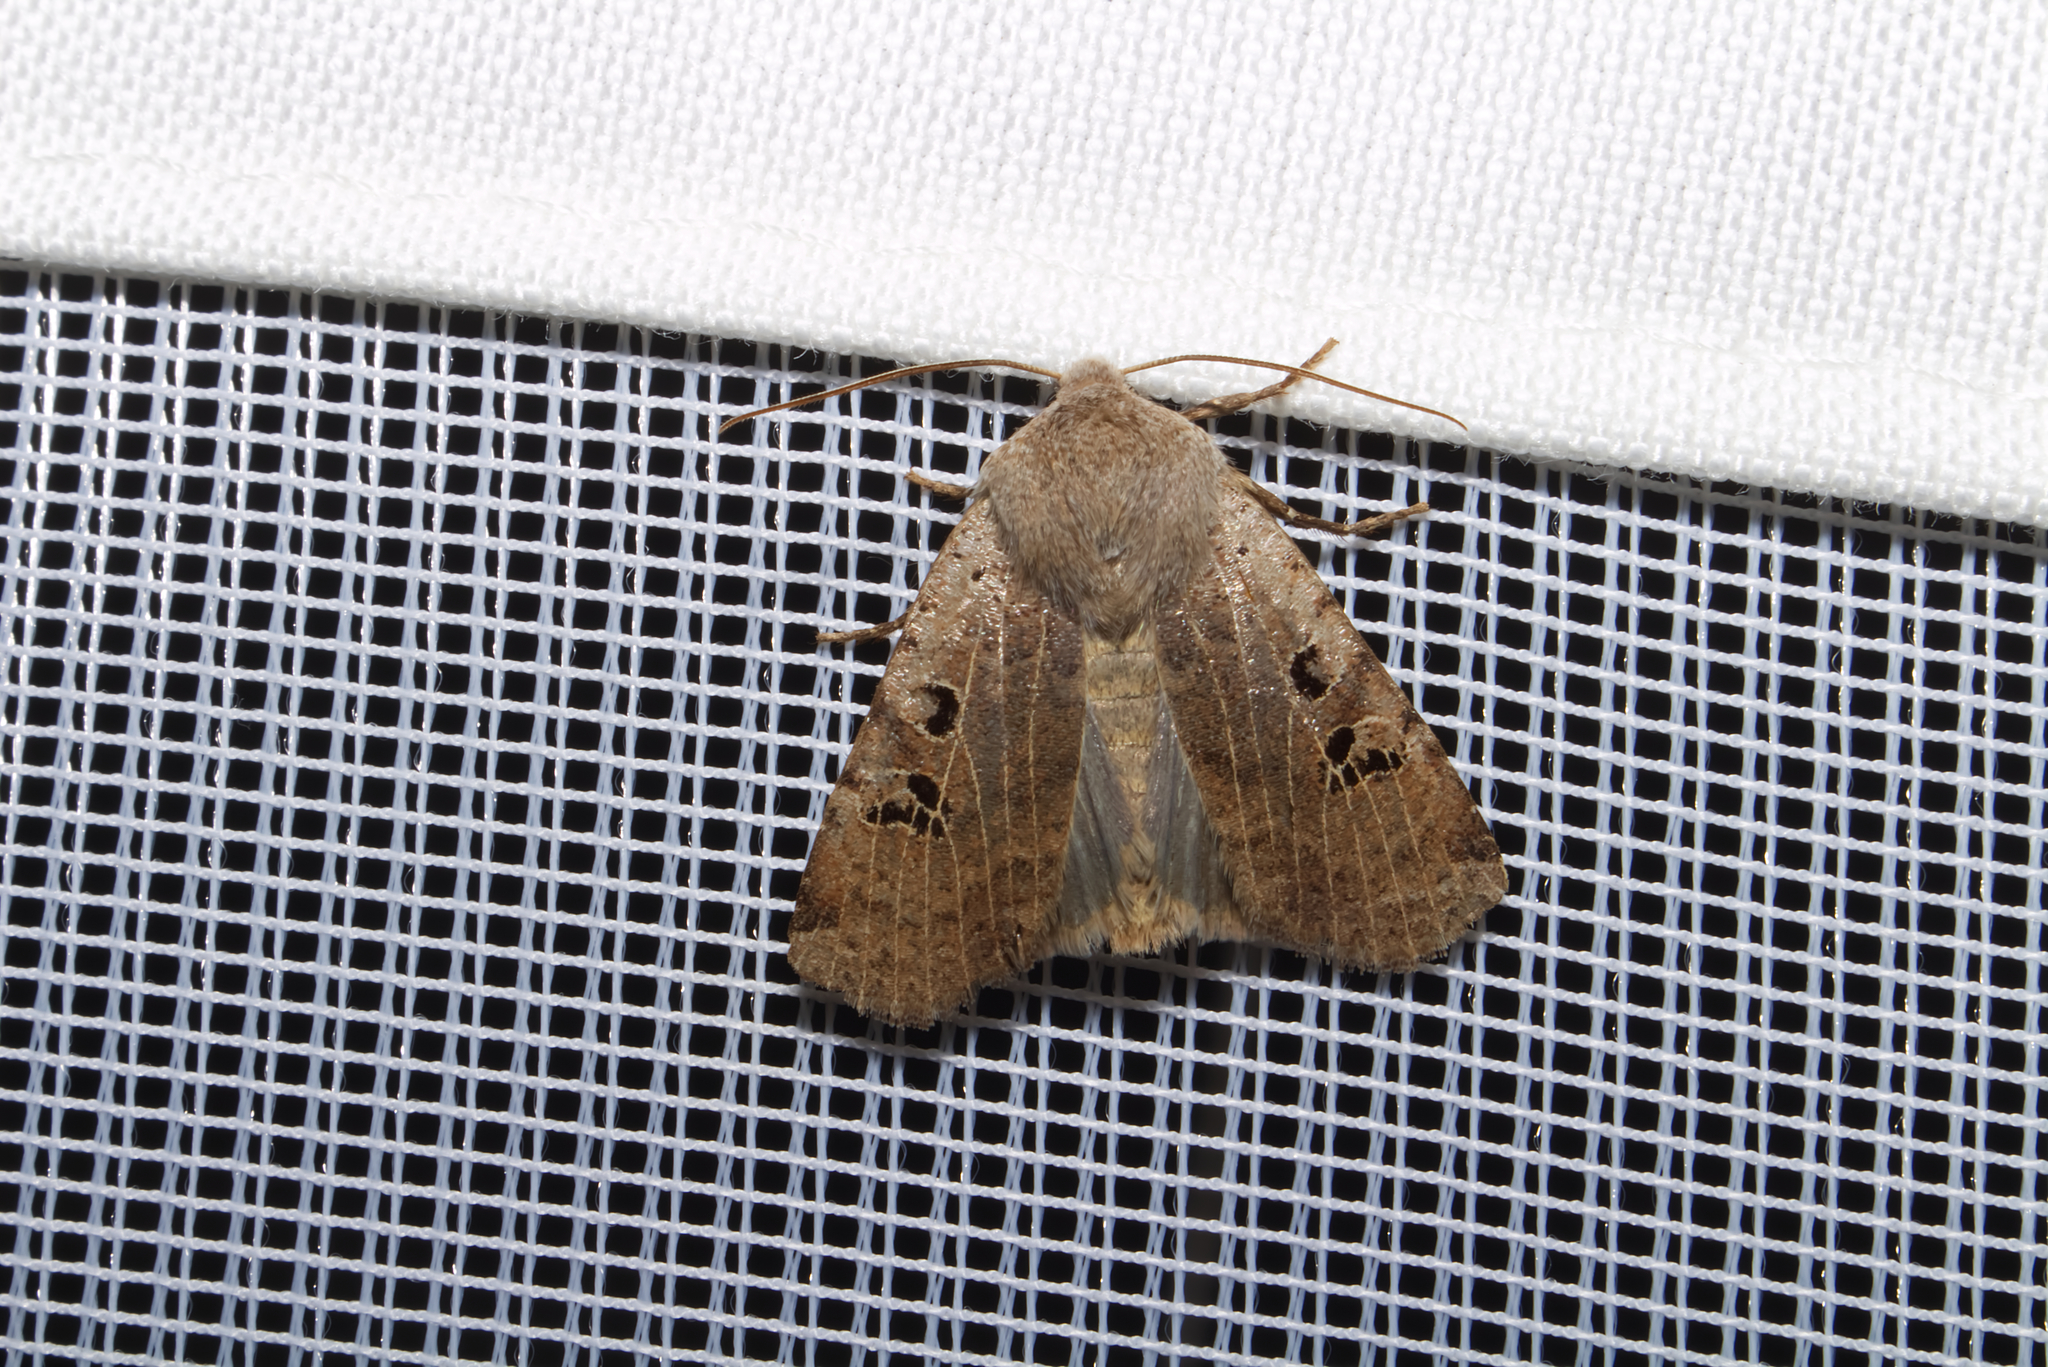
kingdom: Animalia
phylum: Arthropoda
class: Insecta
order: Lepidoptera
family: Noctuidae
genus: Conistra
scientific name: Conistra rubiginosa
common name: Black-spotted chestnut
